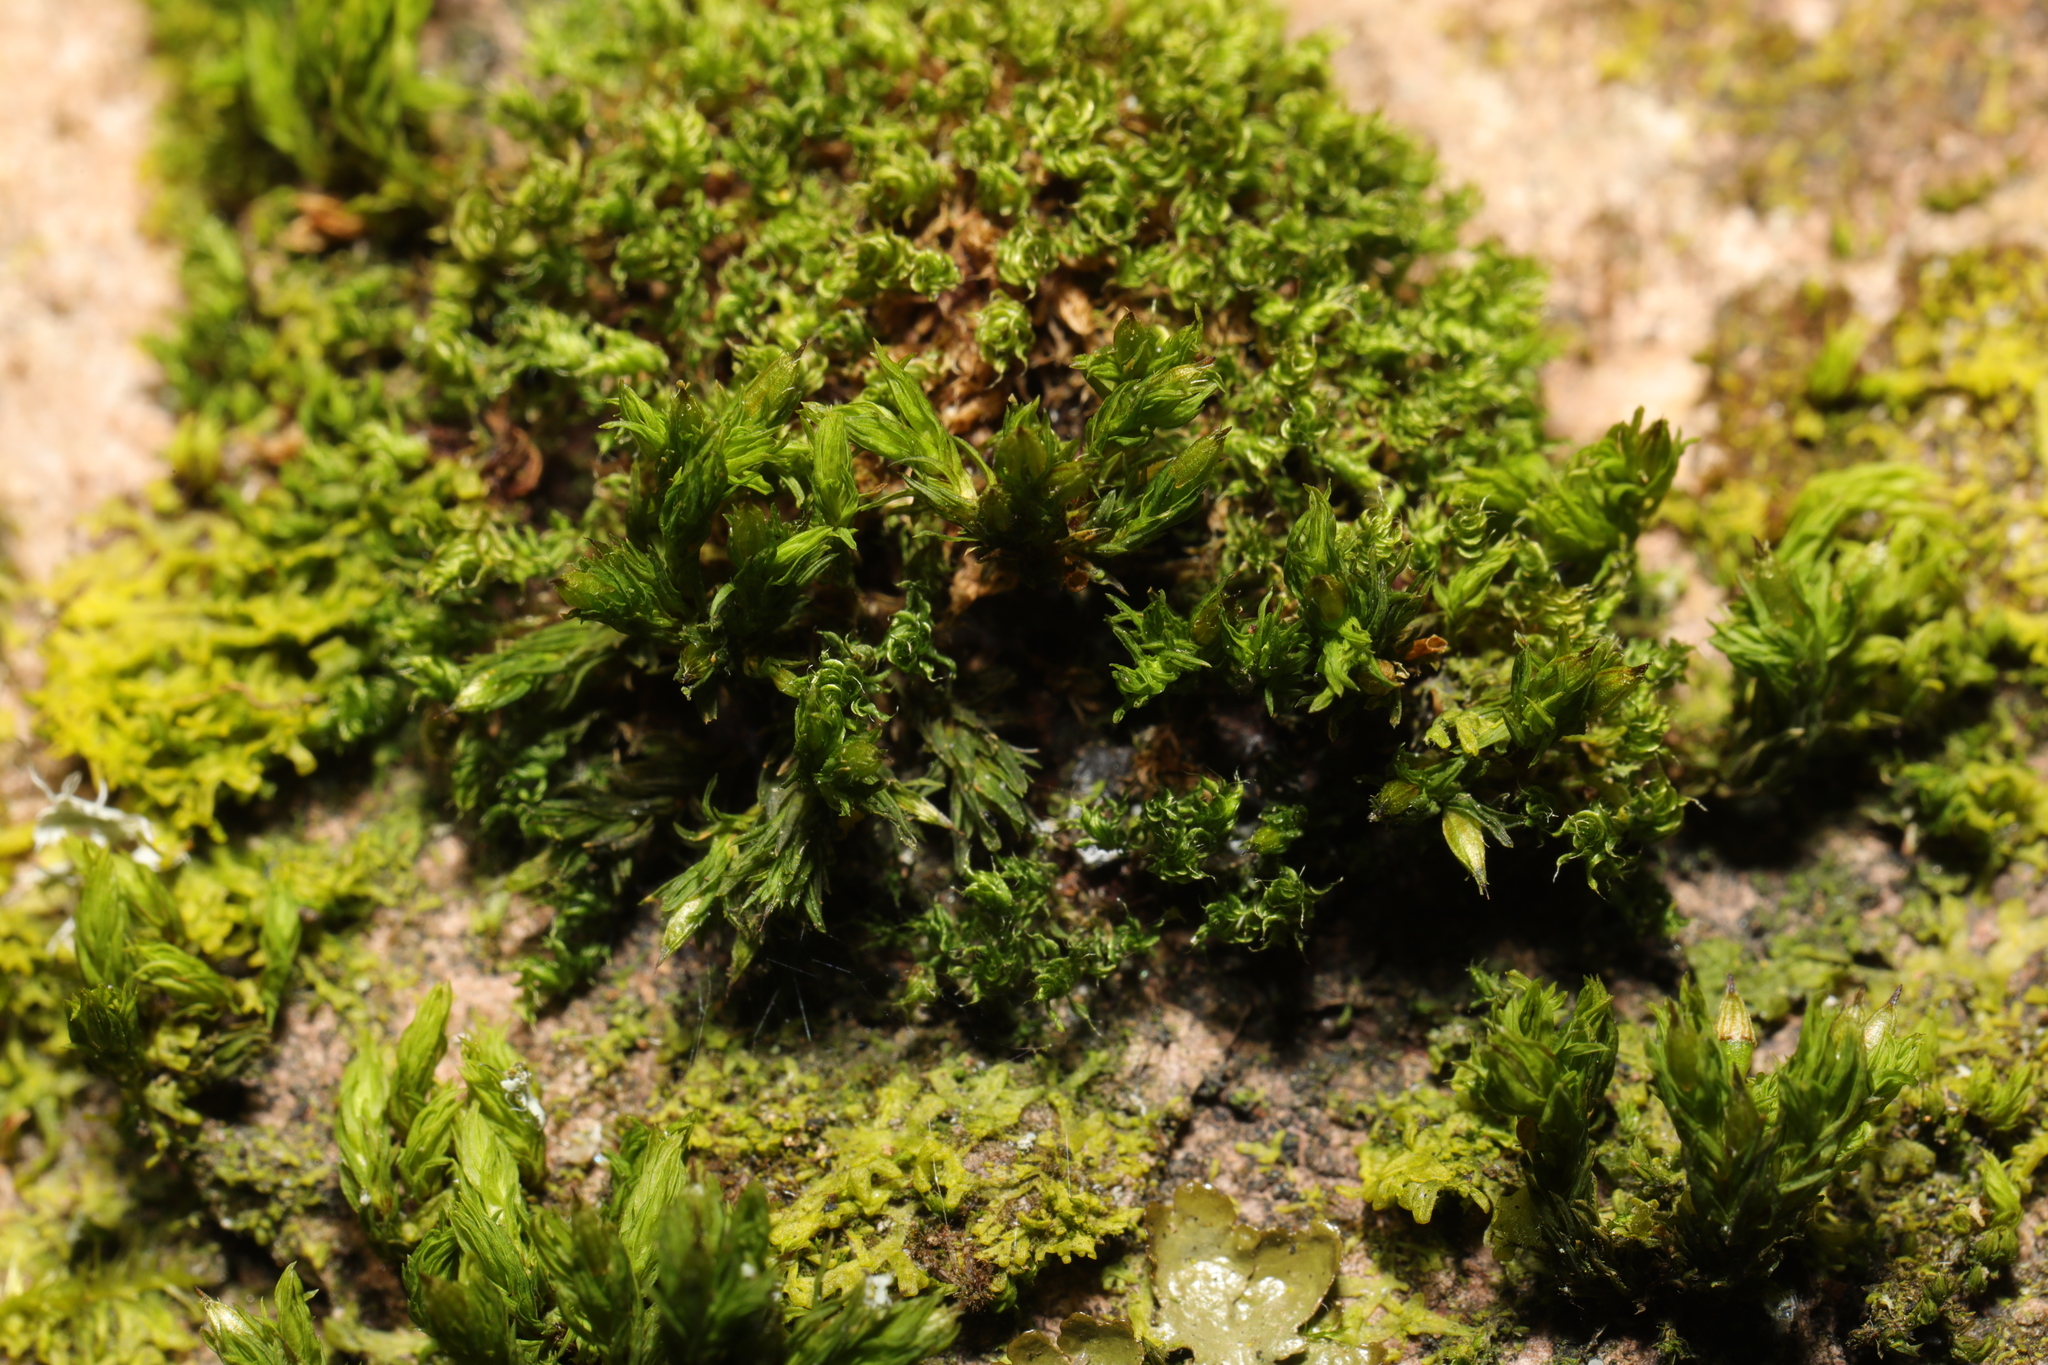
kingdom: Plantae
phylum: Bryophyta
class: Bryopsida
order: Orthotrichales
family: Orthotrichaceae
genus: Lewinskya
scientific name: Lewinskya affinis
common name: Wood bristle-moss
